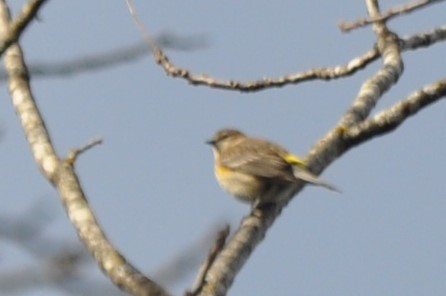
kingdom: Animalia
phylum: Chordata
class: Aves
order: Passeriformes
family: Parulidae
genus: Setophaga
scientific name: Setophaga coronata
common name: Myrtle warbler
